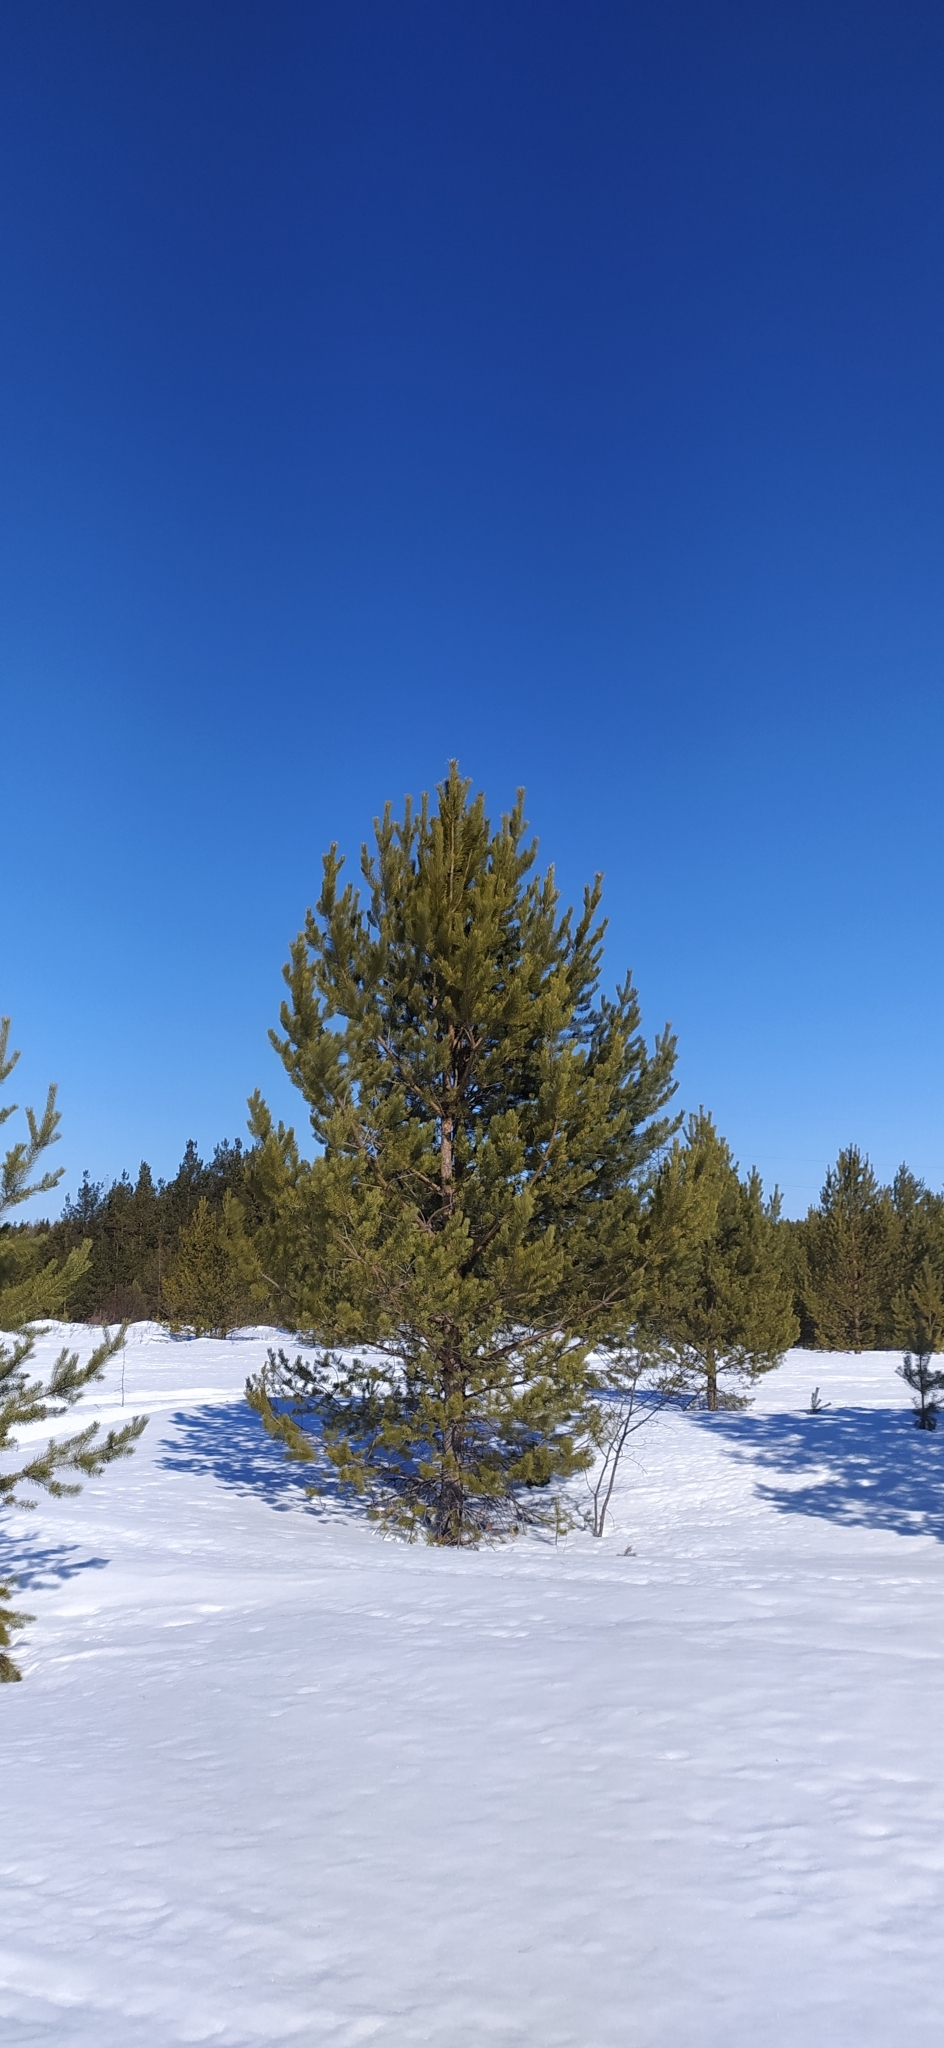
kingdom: Plantae
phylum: Tracheophyta
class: Pinopsida
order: Pinales
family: Pinaceae
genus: Pinus
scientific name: Pinus sylvestris
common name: Scots pine
